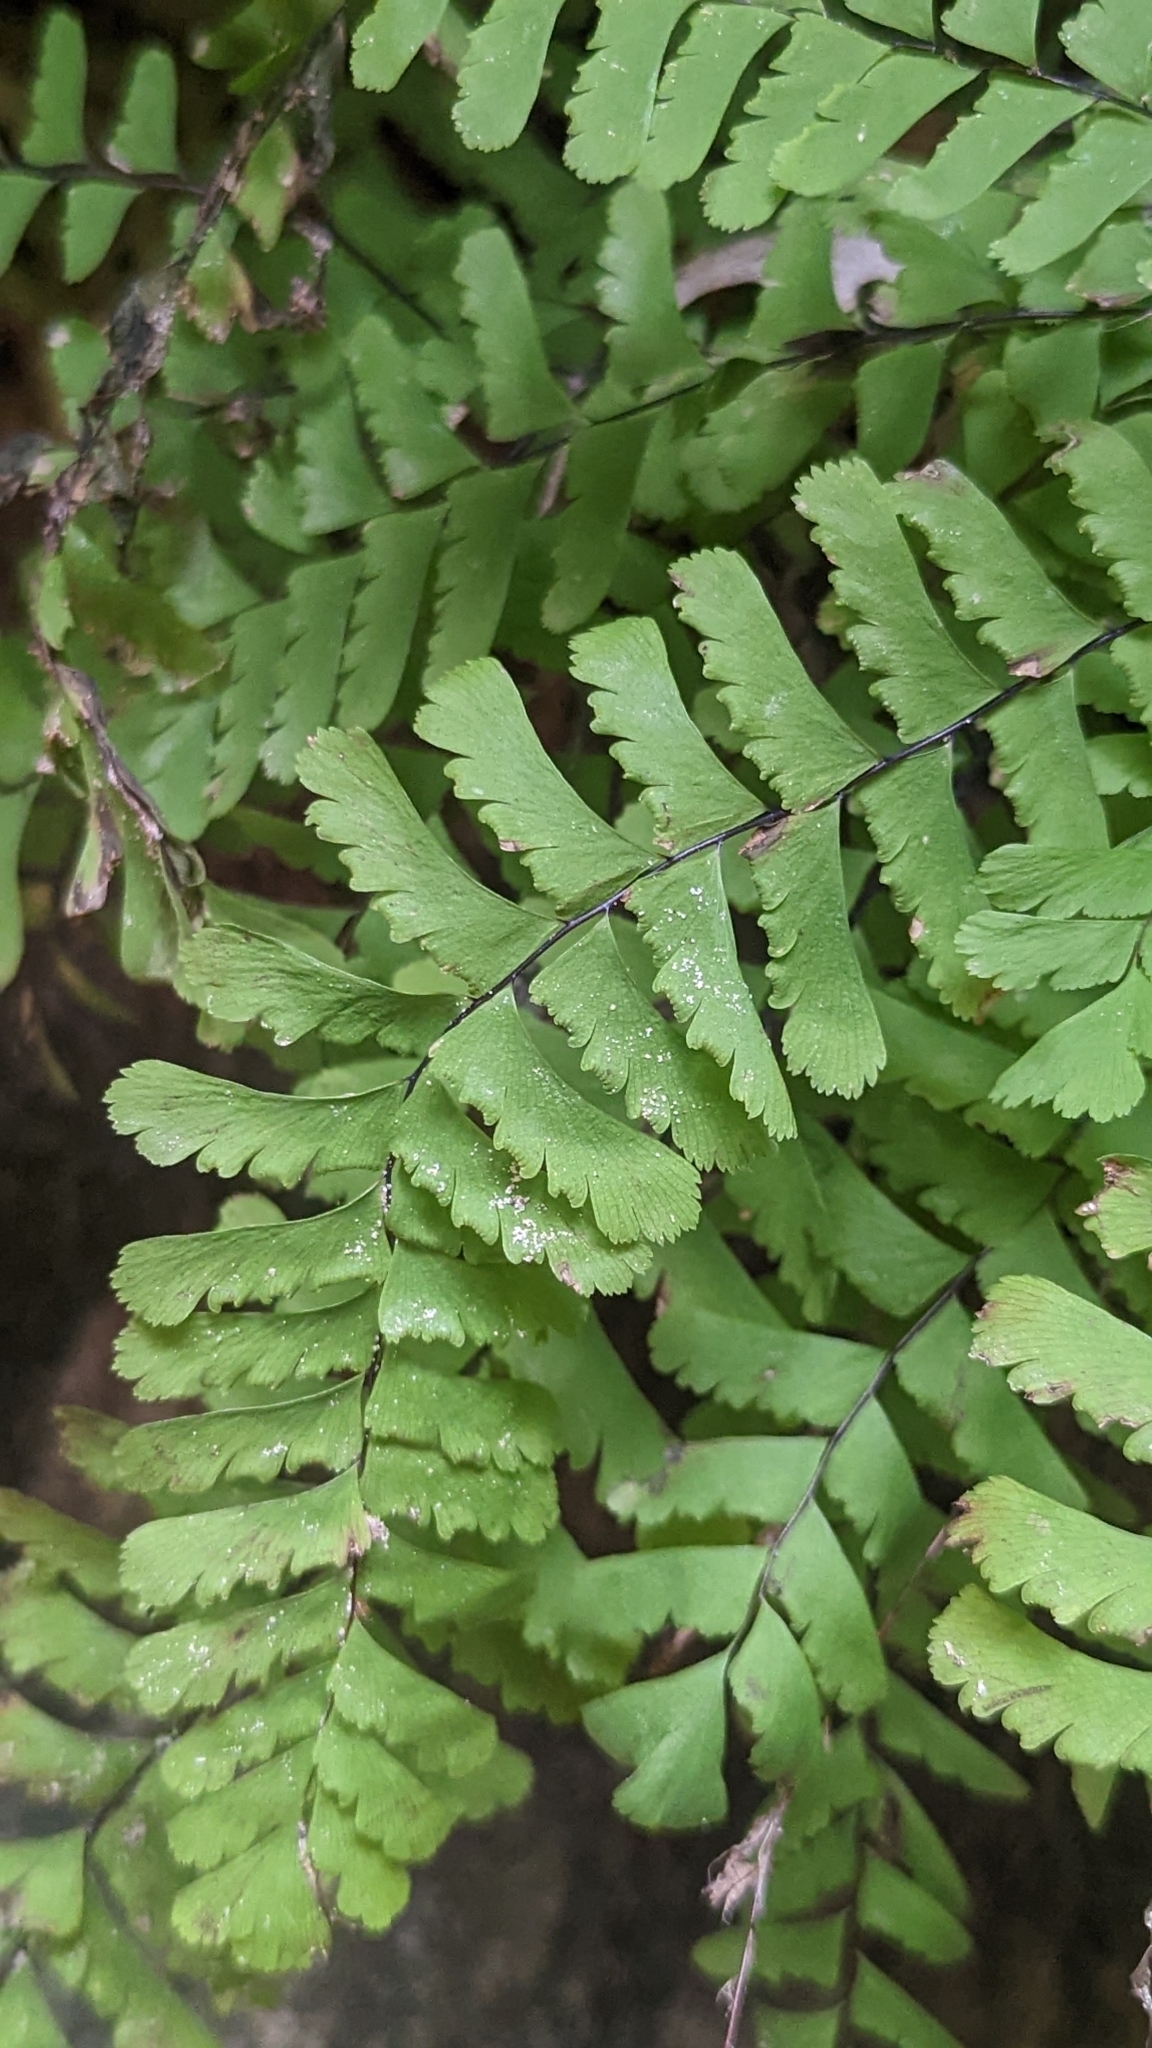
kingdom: Plantae
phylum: Tracheophyta
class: Polypodiopsida
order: Polypodiales
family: Pteridaceae
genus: Adiantum
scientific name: Adiantum aleuticum
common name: Aleutian maidenhair fern
